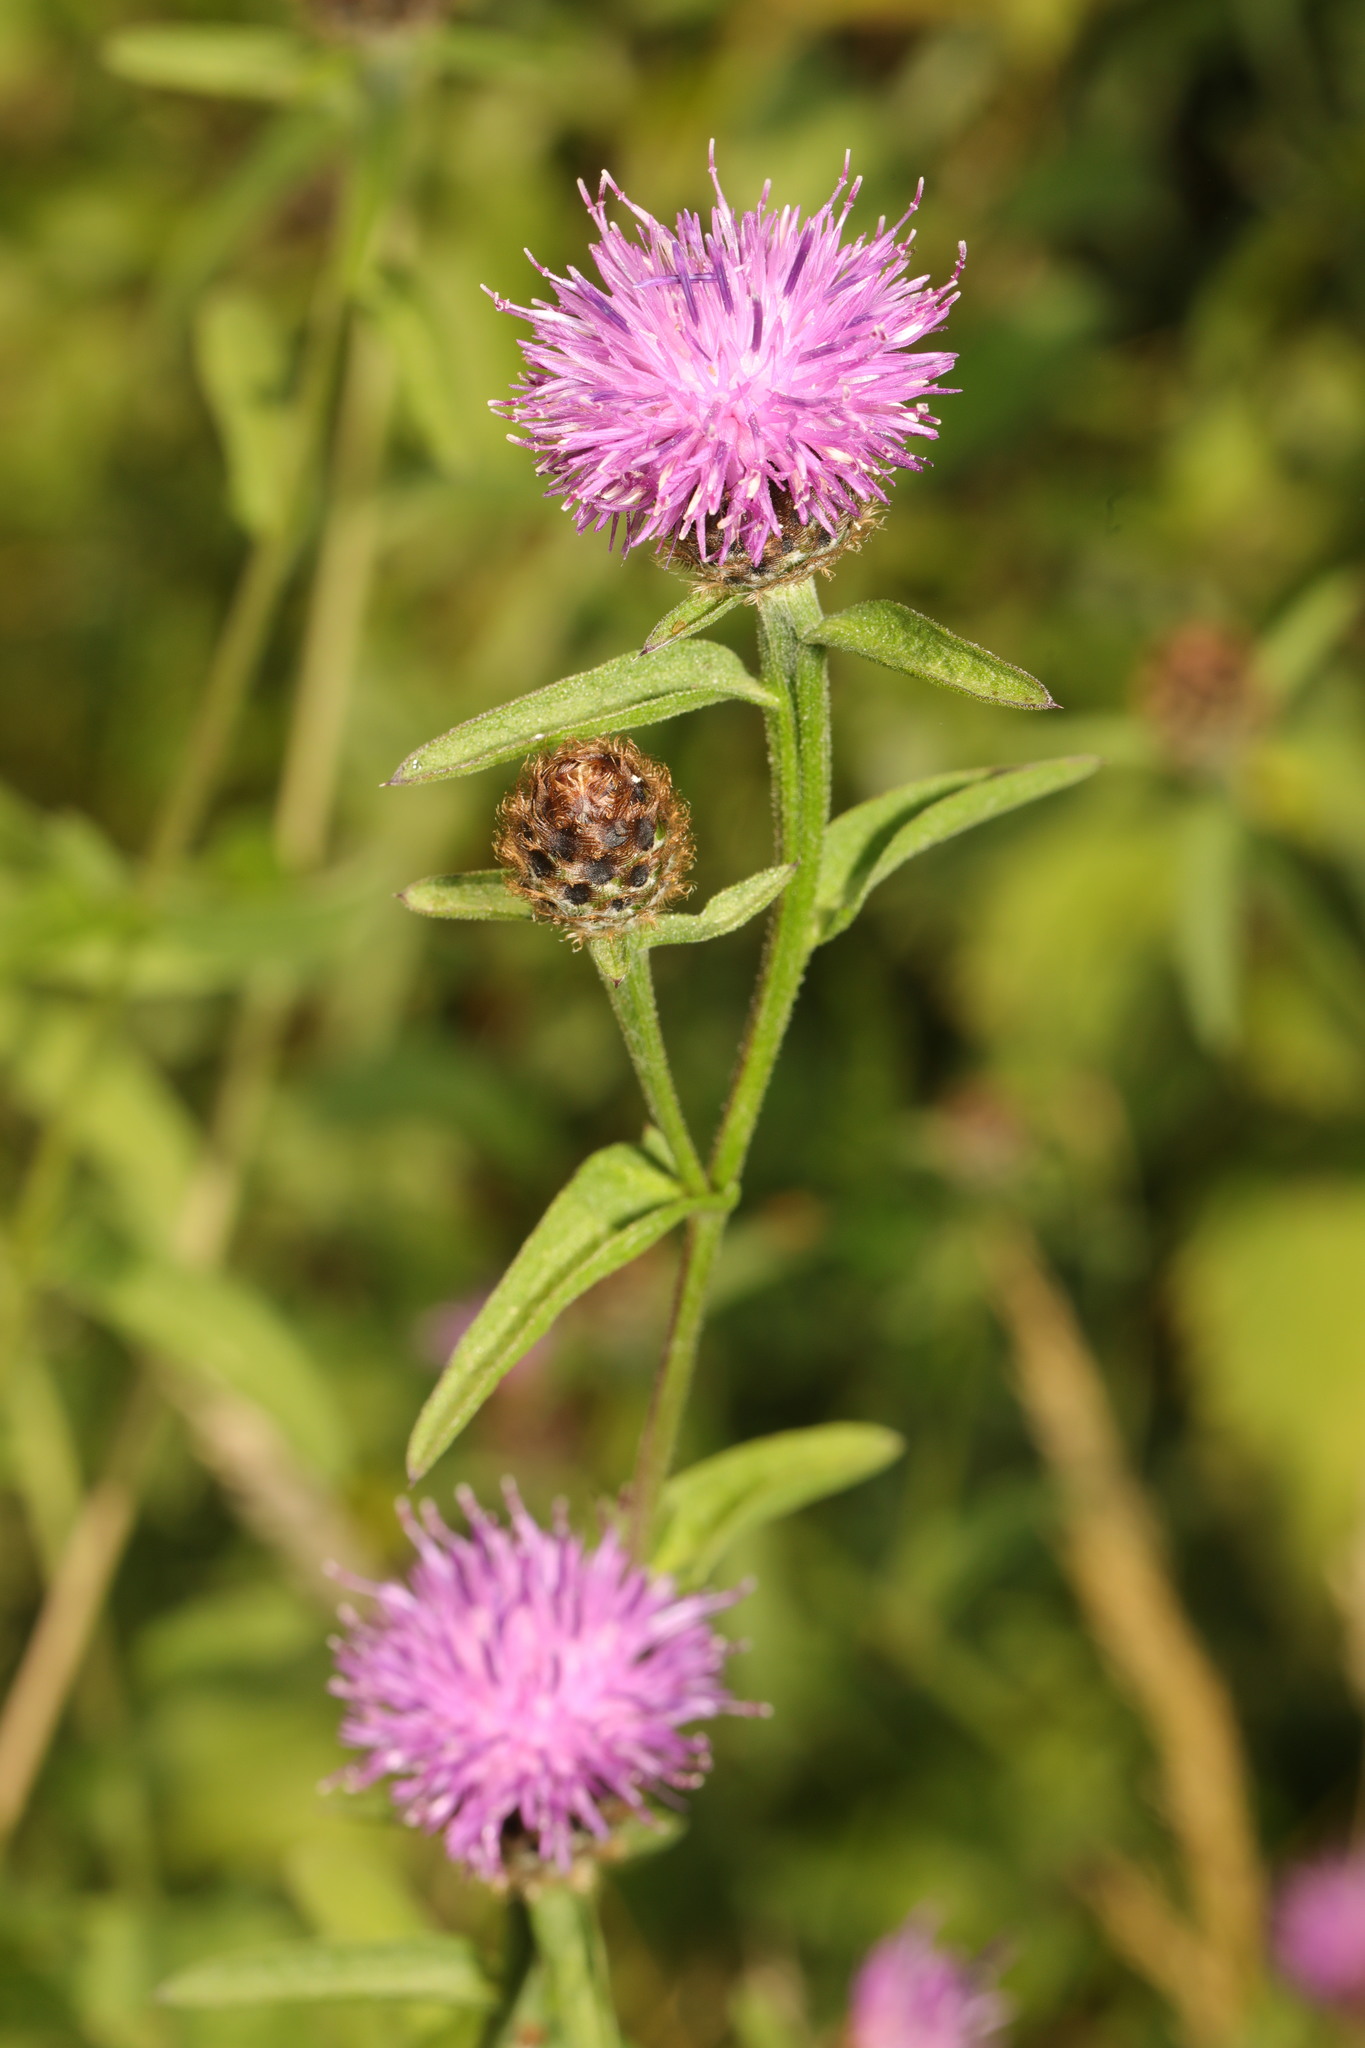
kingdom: Plantae
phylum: Tracheophyta
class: Magnoliopsida
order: Asterales
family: Asteraceae
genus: Centaurea
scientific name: Centaurea nigra
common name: Lesser knapweed
